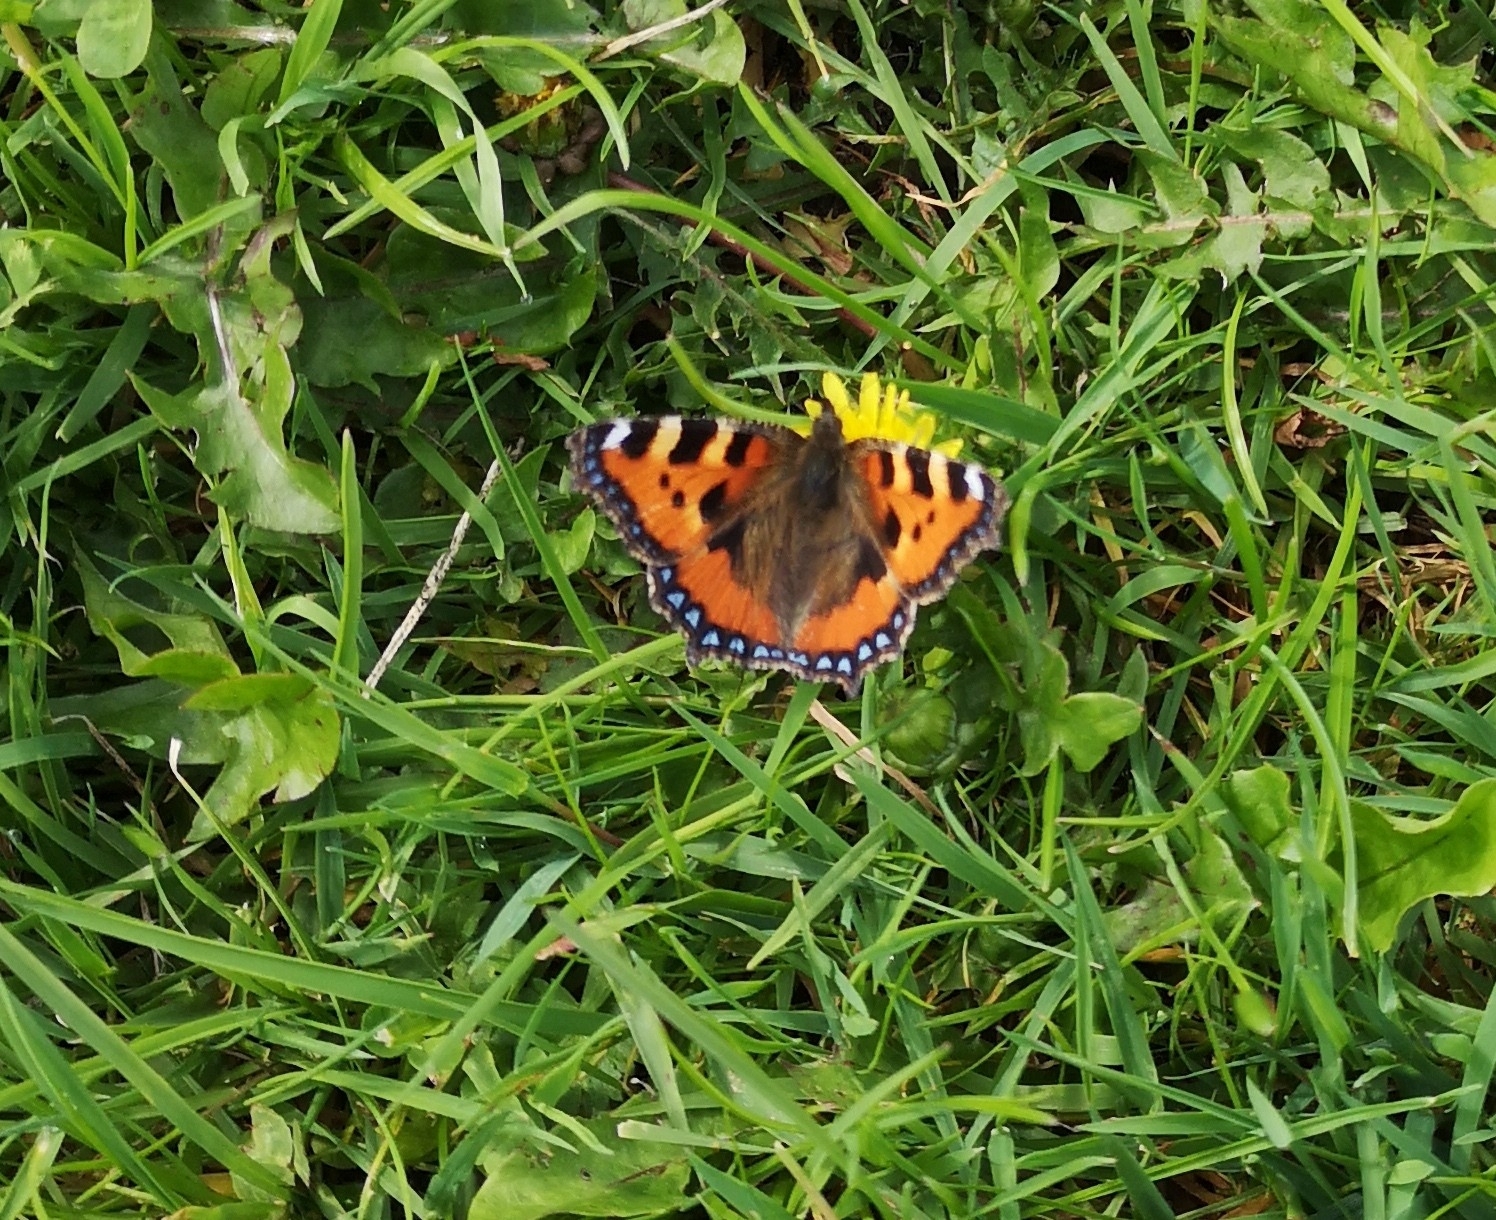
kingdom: Animalia
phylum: Arthropoda
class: Insecta
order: Lepidoptera
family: Nymphalidae
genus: Aglais
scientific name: Aglais urticae
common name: Small tortoiseshell
